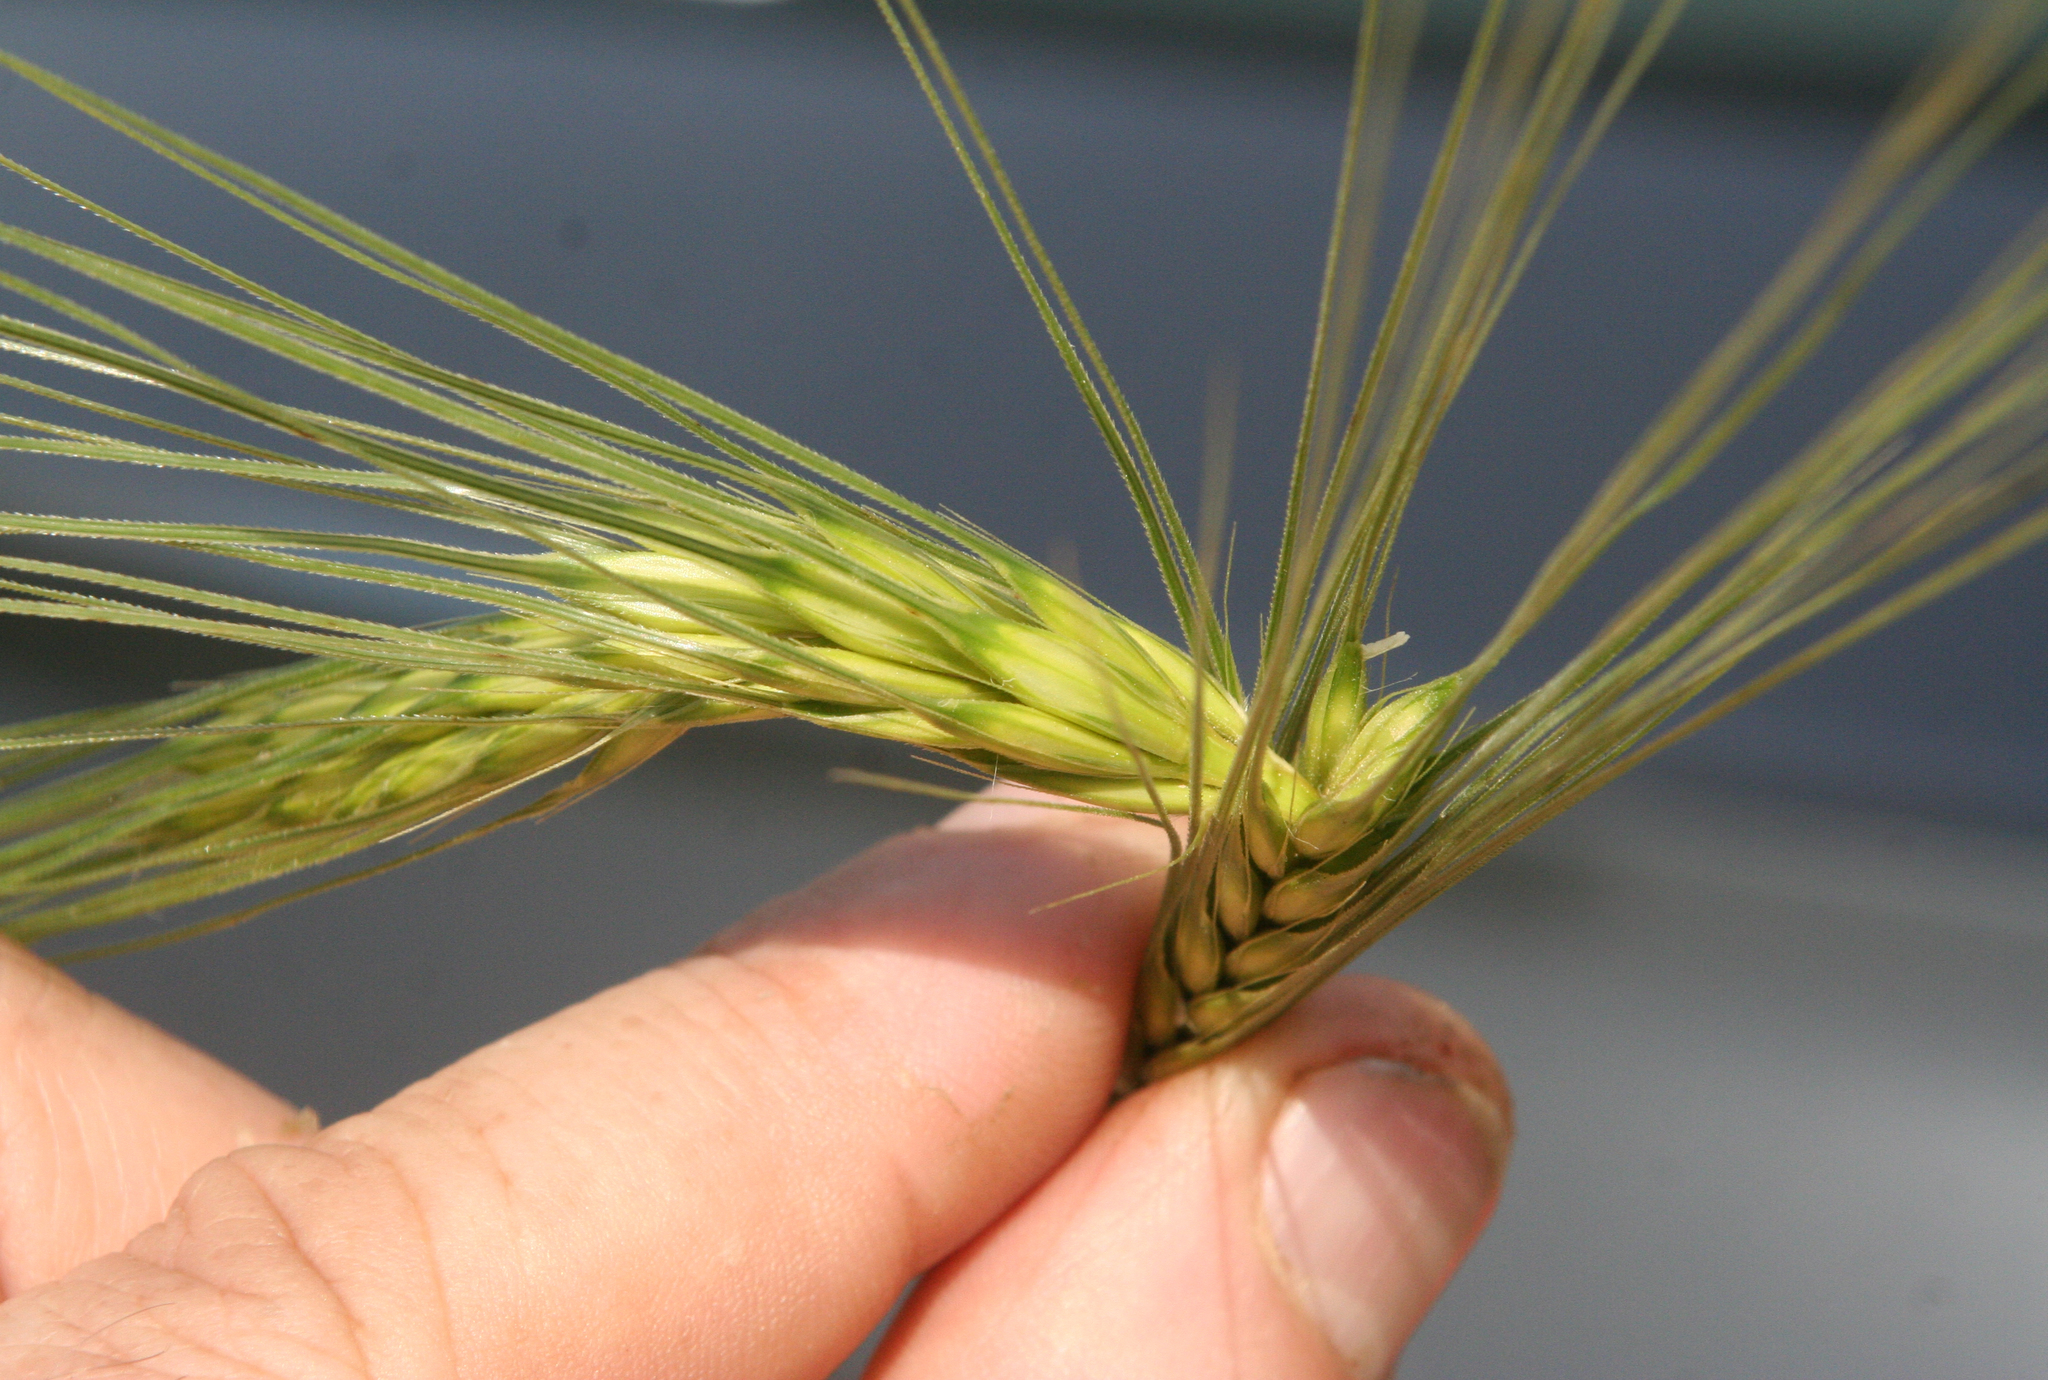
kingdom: Plantae
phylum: Tracheophyta
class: Liliopsida
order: Poales
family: Poaceae
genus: Hordeum
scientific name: Hordeum
